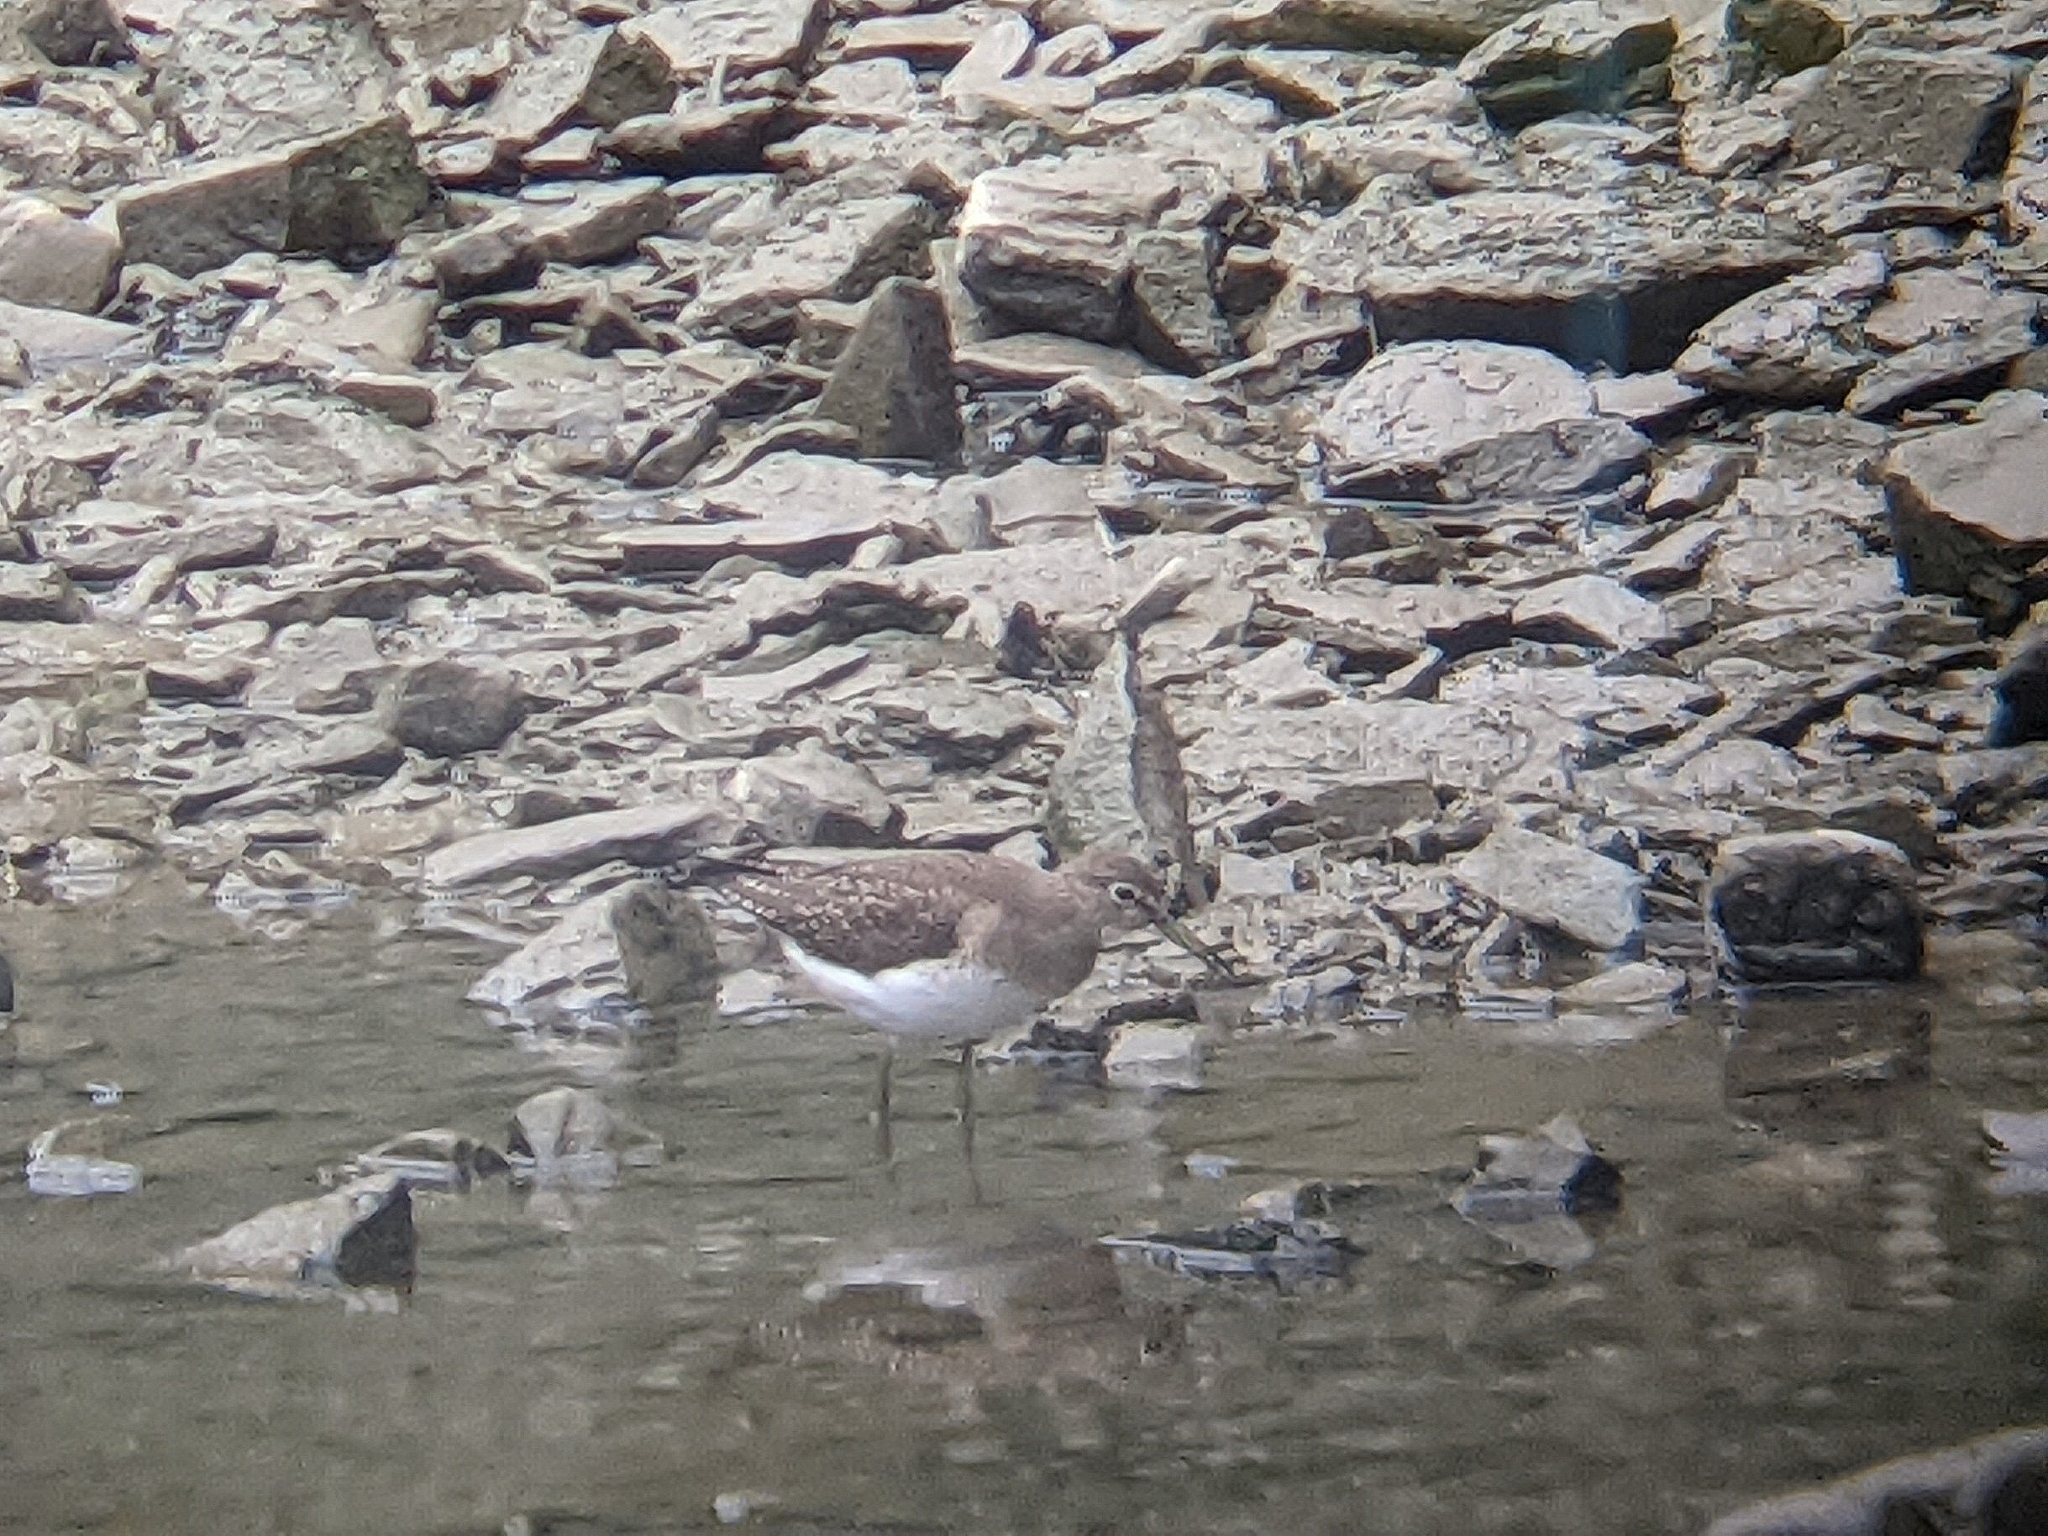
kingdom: Animalia
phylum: Chordata
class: Aves
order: Charadriiformes
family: Scolopacidae
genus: Tringa
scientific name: Tringa solitaria
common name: Solitary sandpiper
